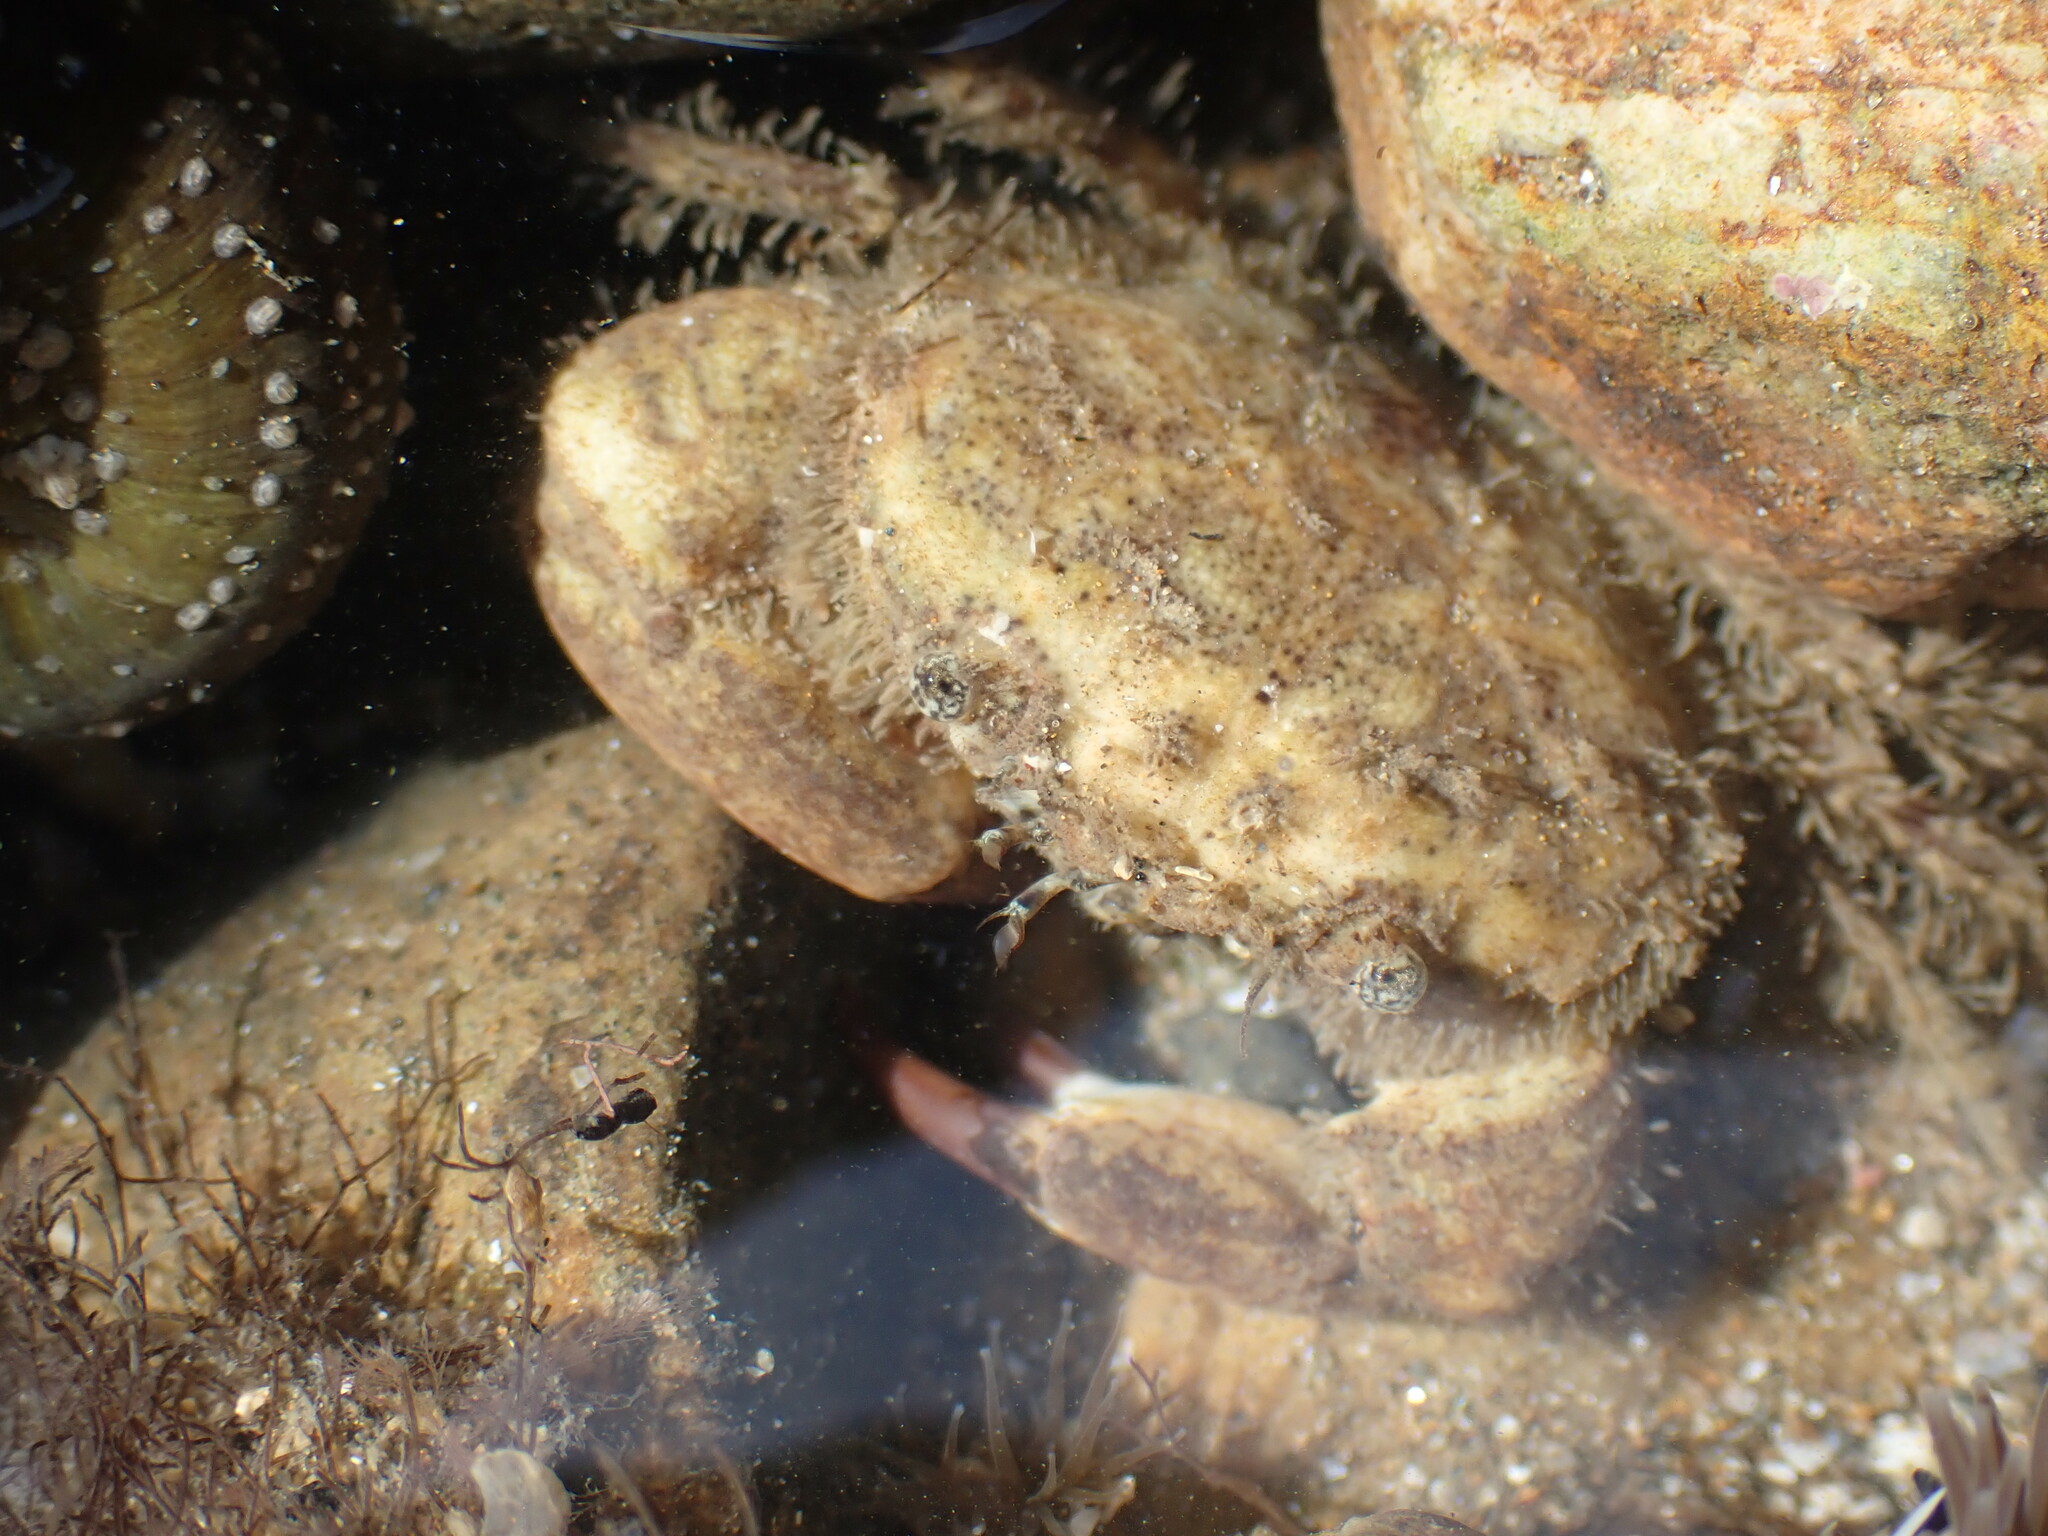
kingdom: Animalia
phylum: Arthropoda
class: Malacostraca
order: Decapoda
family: Pilumnidae
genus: Pilumnopeus
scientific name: Pilumnopeus serratifrons
